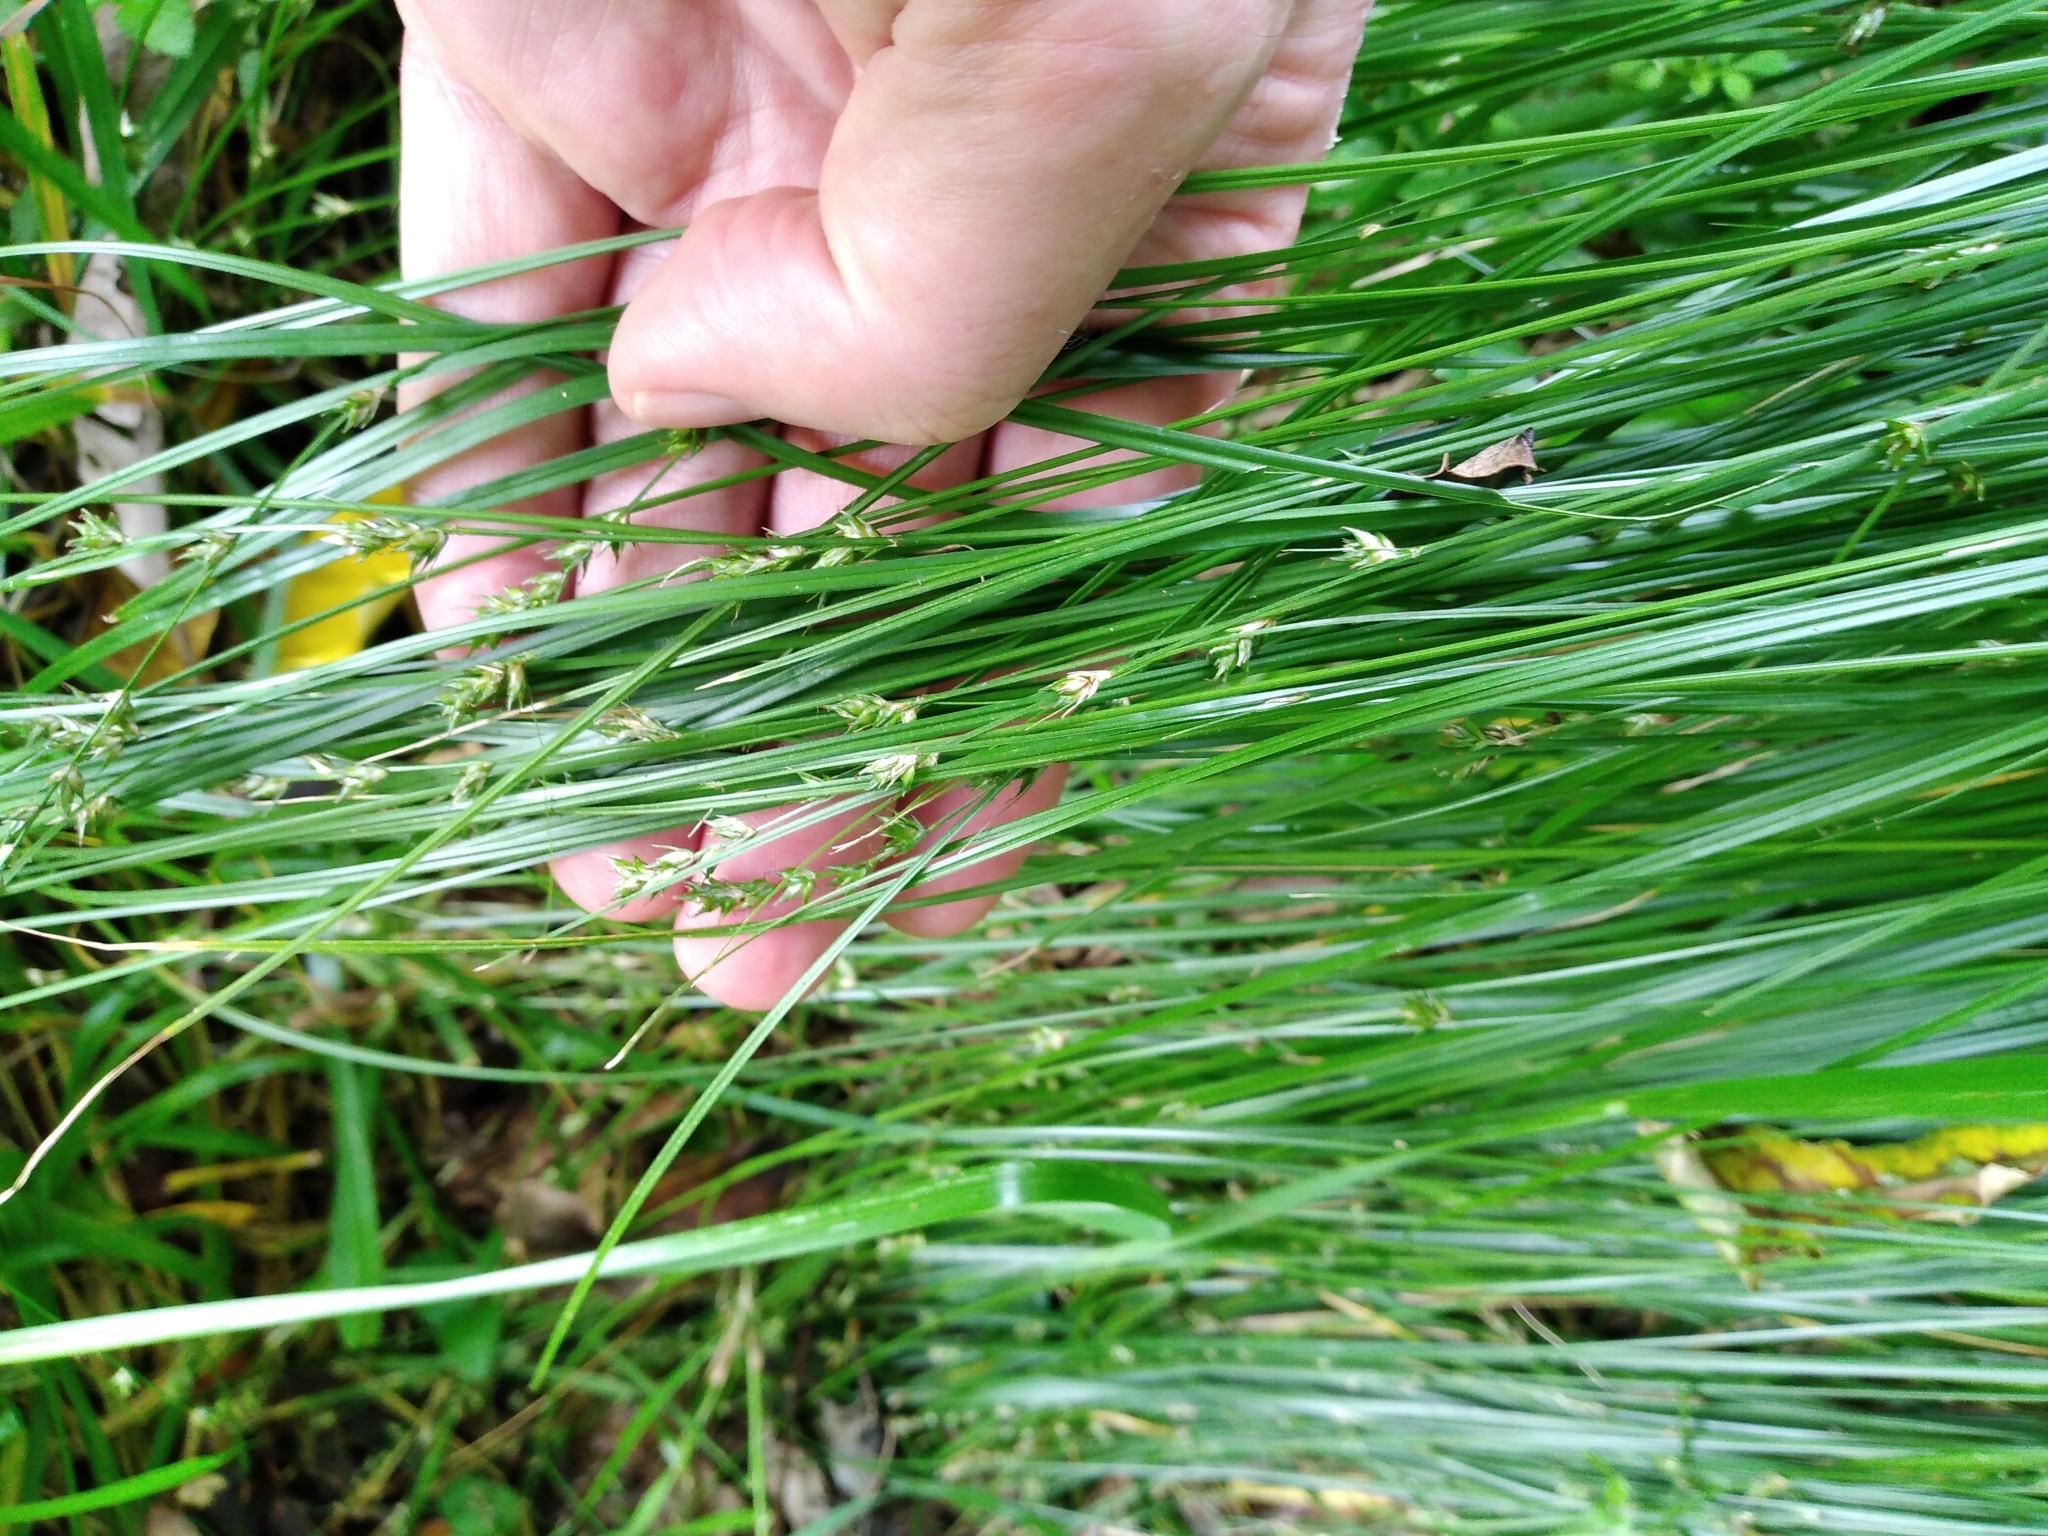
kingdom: Plantae
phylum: Tracheophyta
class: Liliopsida
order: Poales
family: Cyperaceae
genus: Carex
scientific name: Carex divulsa
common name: Grassland sedge
